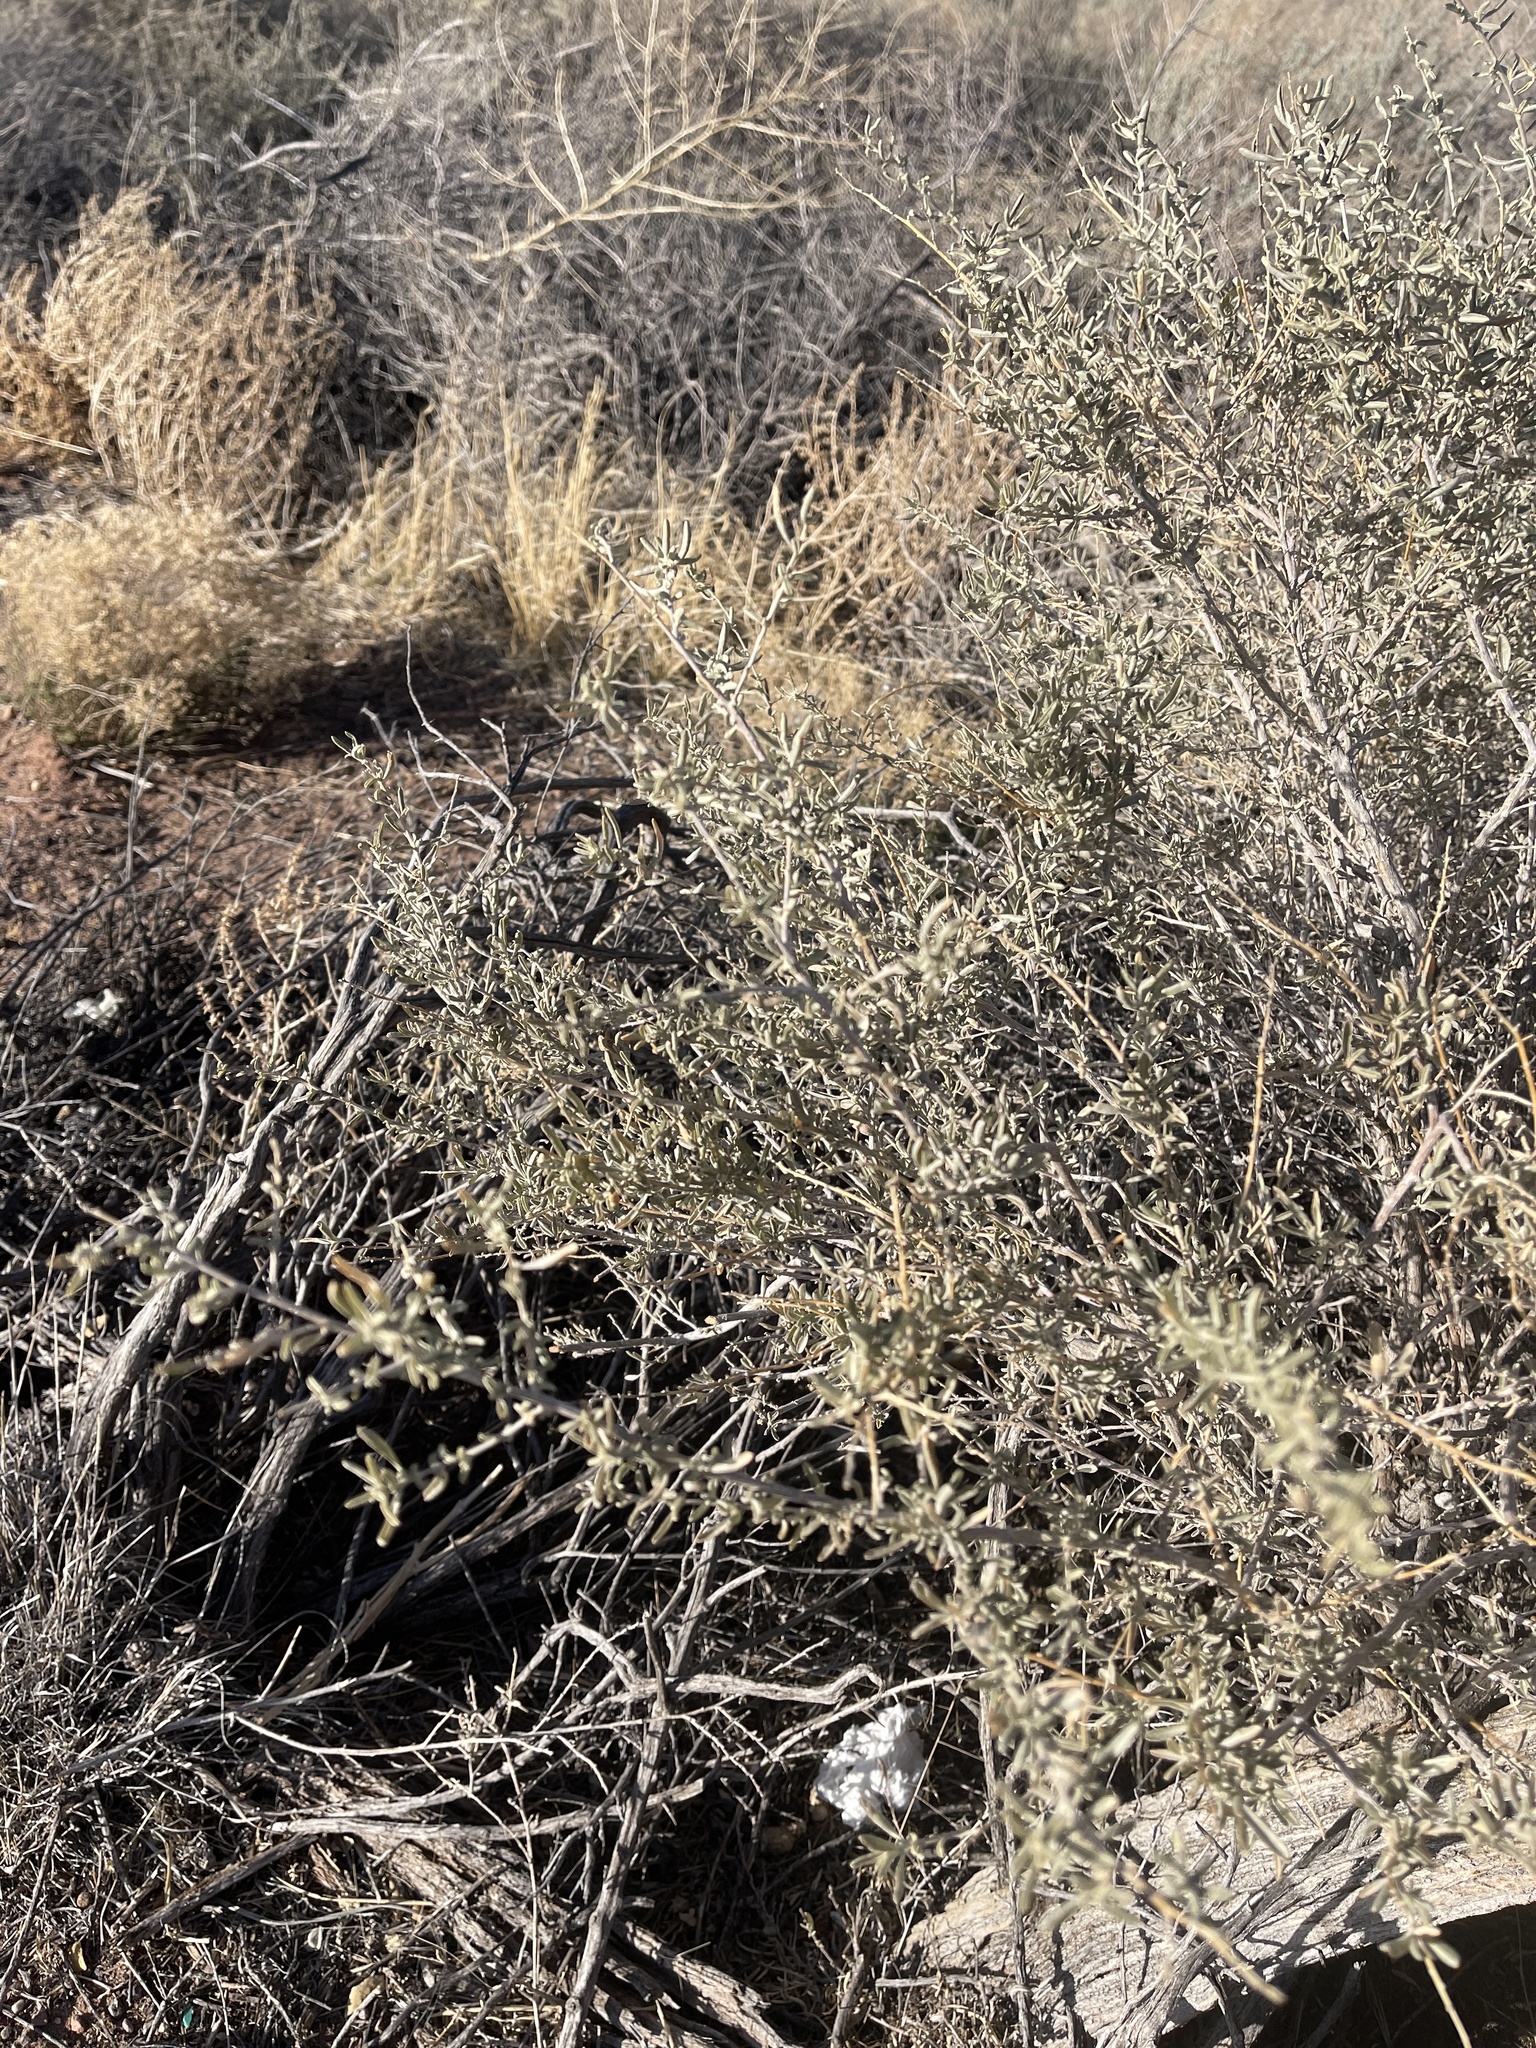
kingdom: Plantae
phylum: Tracheophyta
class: Magnoliopsida
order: Caryophyllales
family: Amaranthaceae
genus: Atriplex
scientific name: Atriplex canescens
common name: Four-wing saltbush
